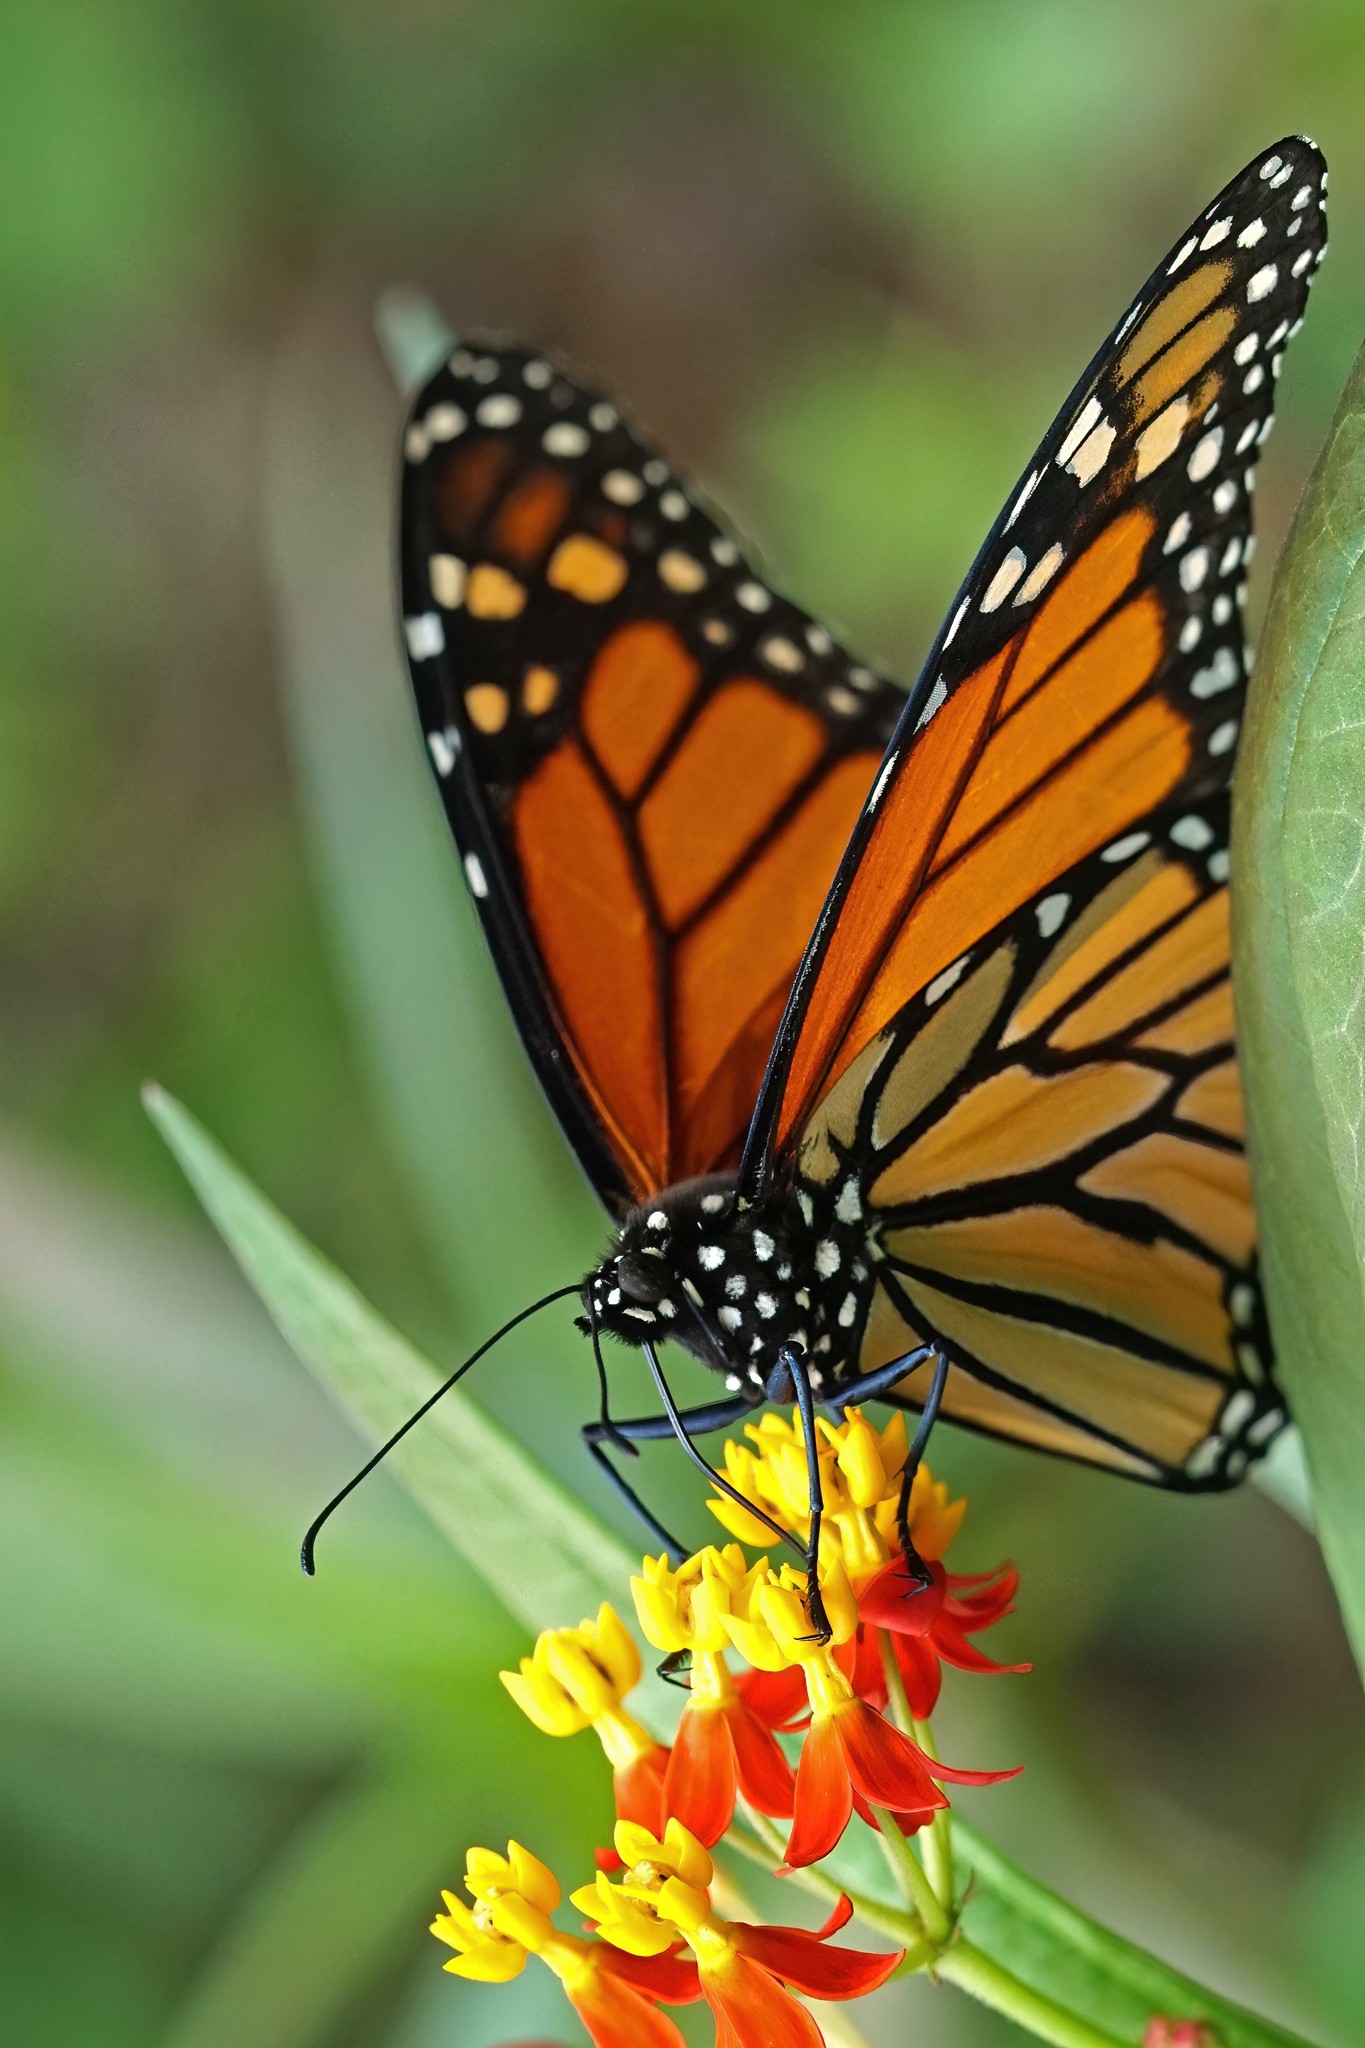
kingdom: Animalia
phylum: Arthropoda
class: Insecta
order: Lepidoptera
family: Nymphalidae
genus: Danaus
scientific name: Danaus plexippus
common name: Monarch
